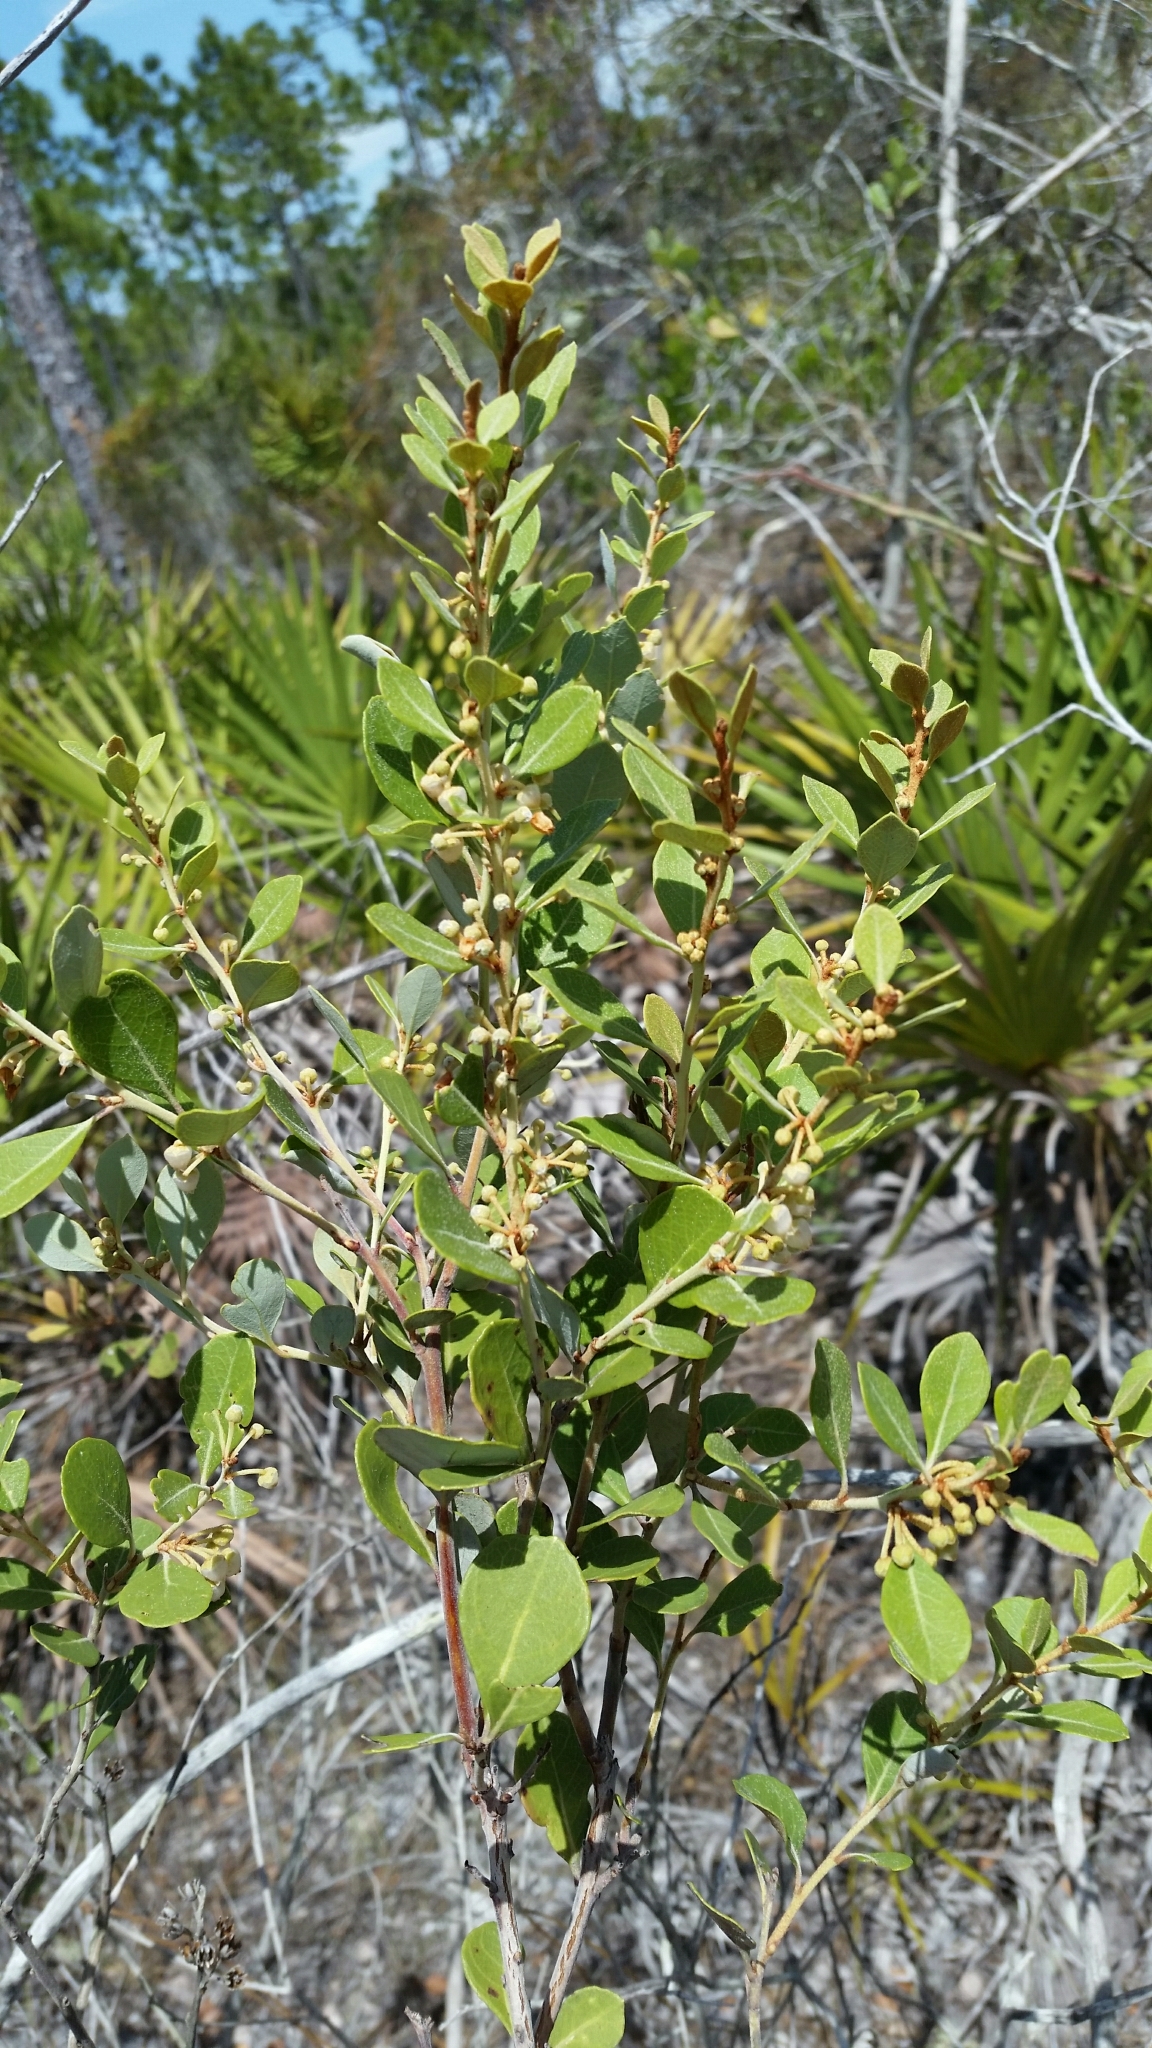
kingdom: Plantae
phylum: Tracheophyta
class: Magnoliopsida
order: Ericales
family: Ericaceae
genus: Lyonia
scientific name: Lyonia fruticosa
